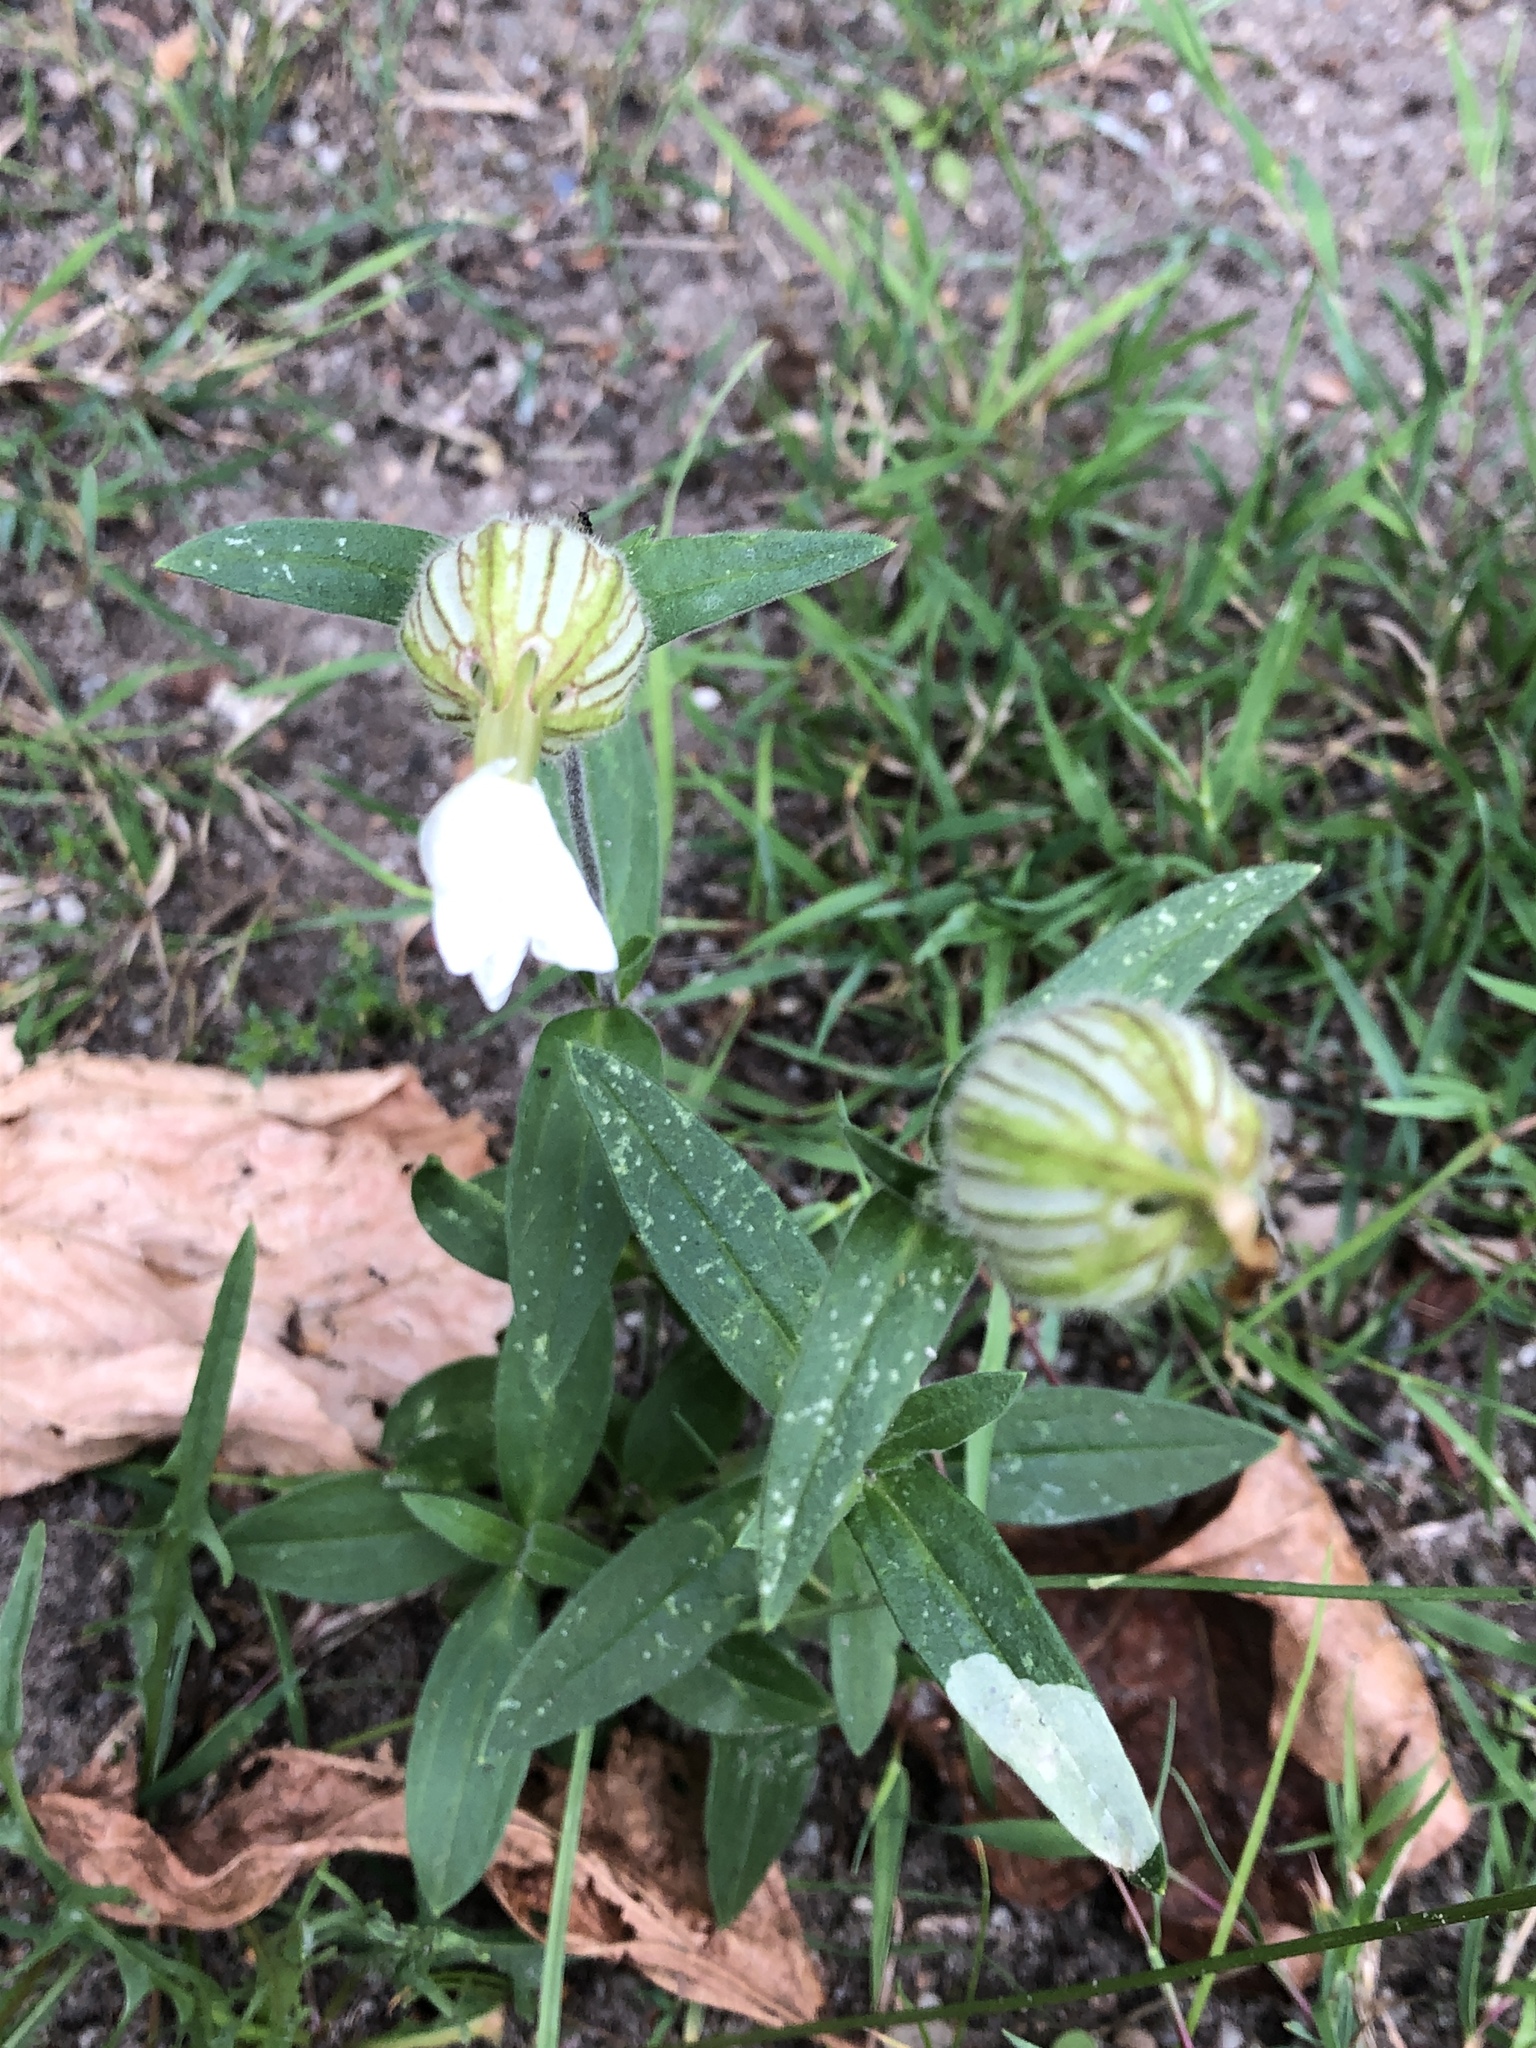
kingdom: Plantae
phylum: Tracheophyta
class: Magnoliopsida
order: Caryophyllales
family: Caryophyllaceae
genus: Silene
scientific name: Silene latifolia
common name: White campion
